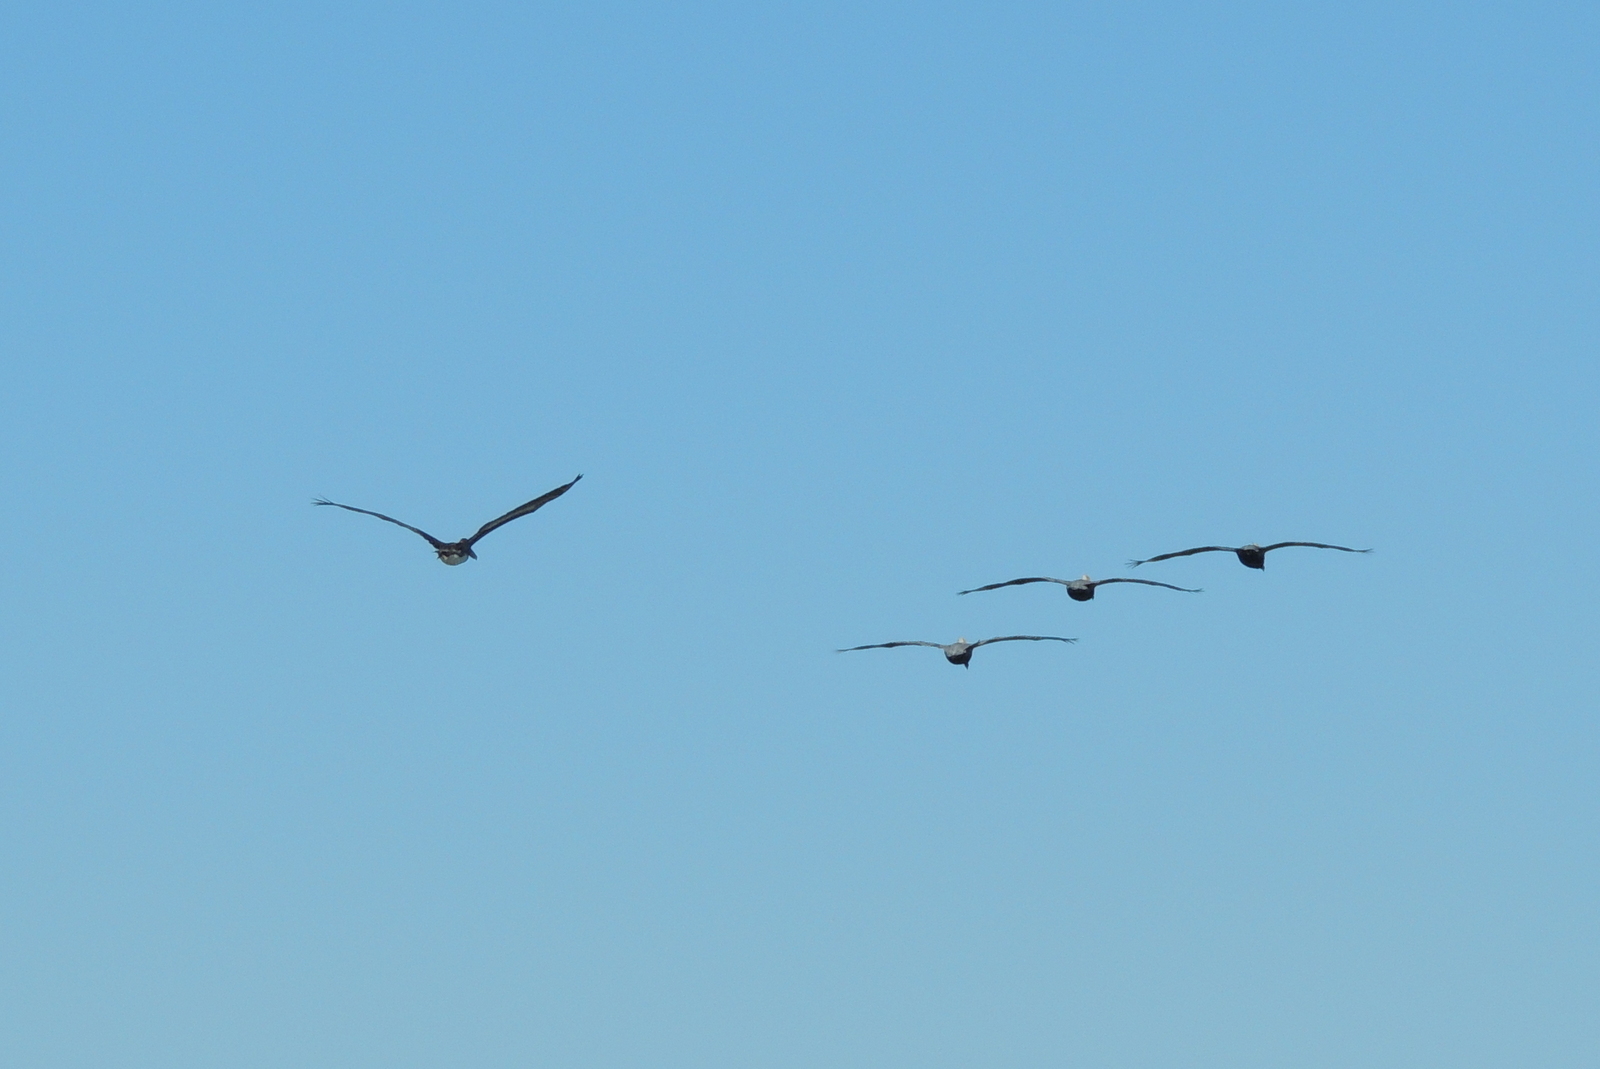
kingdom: Animalia
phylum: Chordata
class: Aves
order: Pelecaniformes
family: Pelecanidae
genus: Pelecanus
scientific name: Pelecanus occidentalis
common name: Brown pelican
